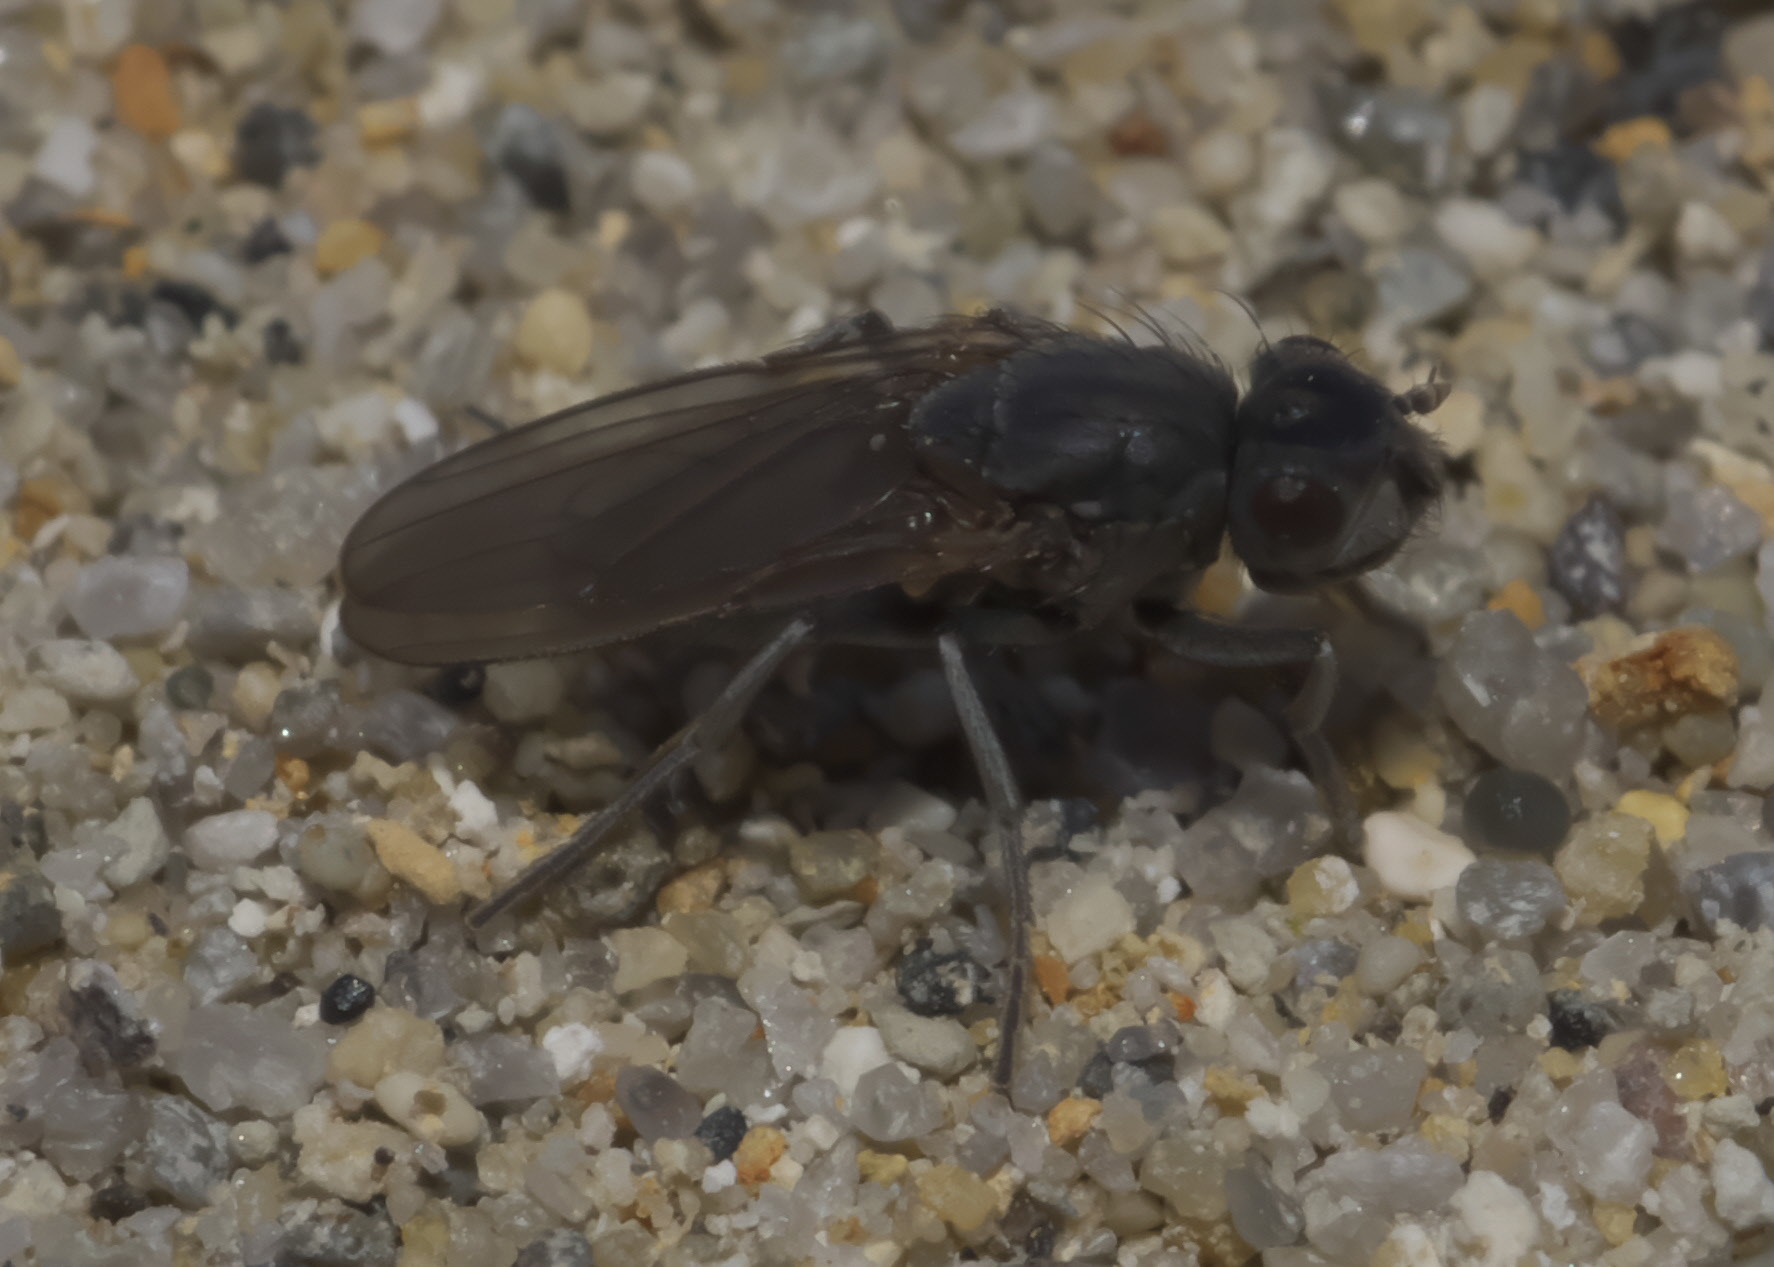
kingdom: Animalia
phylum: Arthropoda
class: Insecta
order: Diptera
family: Ephydridae
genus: Cirrula
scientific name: Cirrula hians
